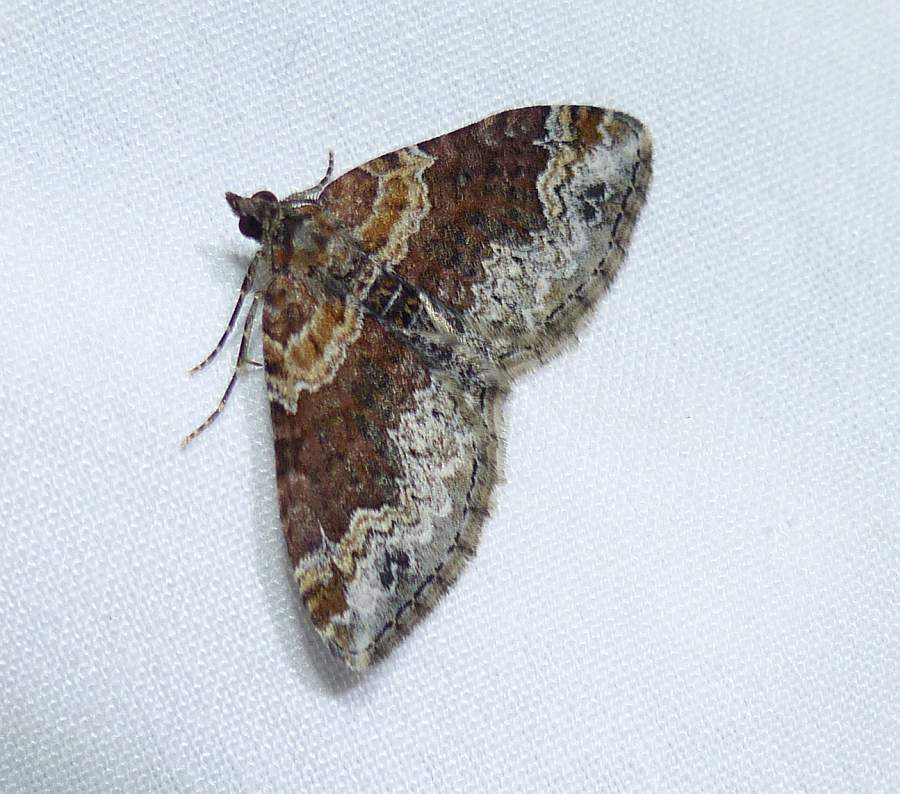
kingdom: Animalia
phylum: Arthropoda
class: Insecta
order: Lepidoptera
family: Geometridae
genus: Xanthorhoe
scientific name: Xanthorhoe ferrugata
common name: Dark-barred twin-spot carpet
